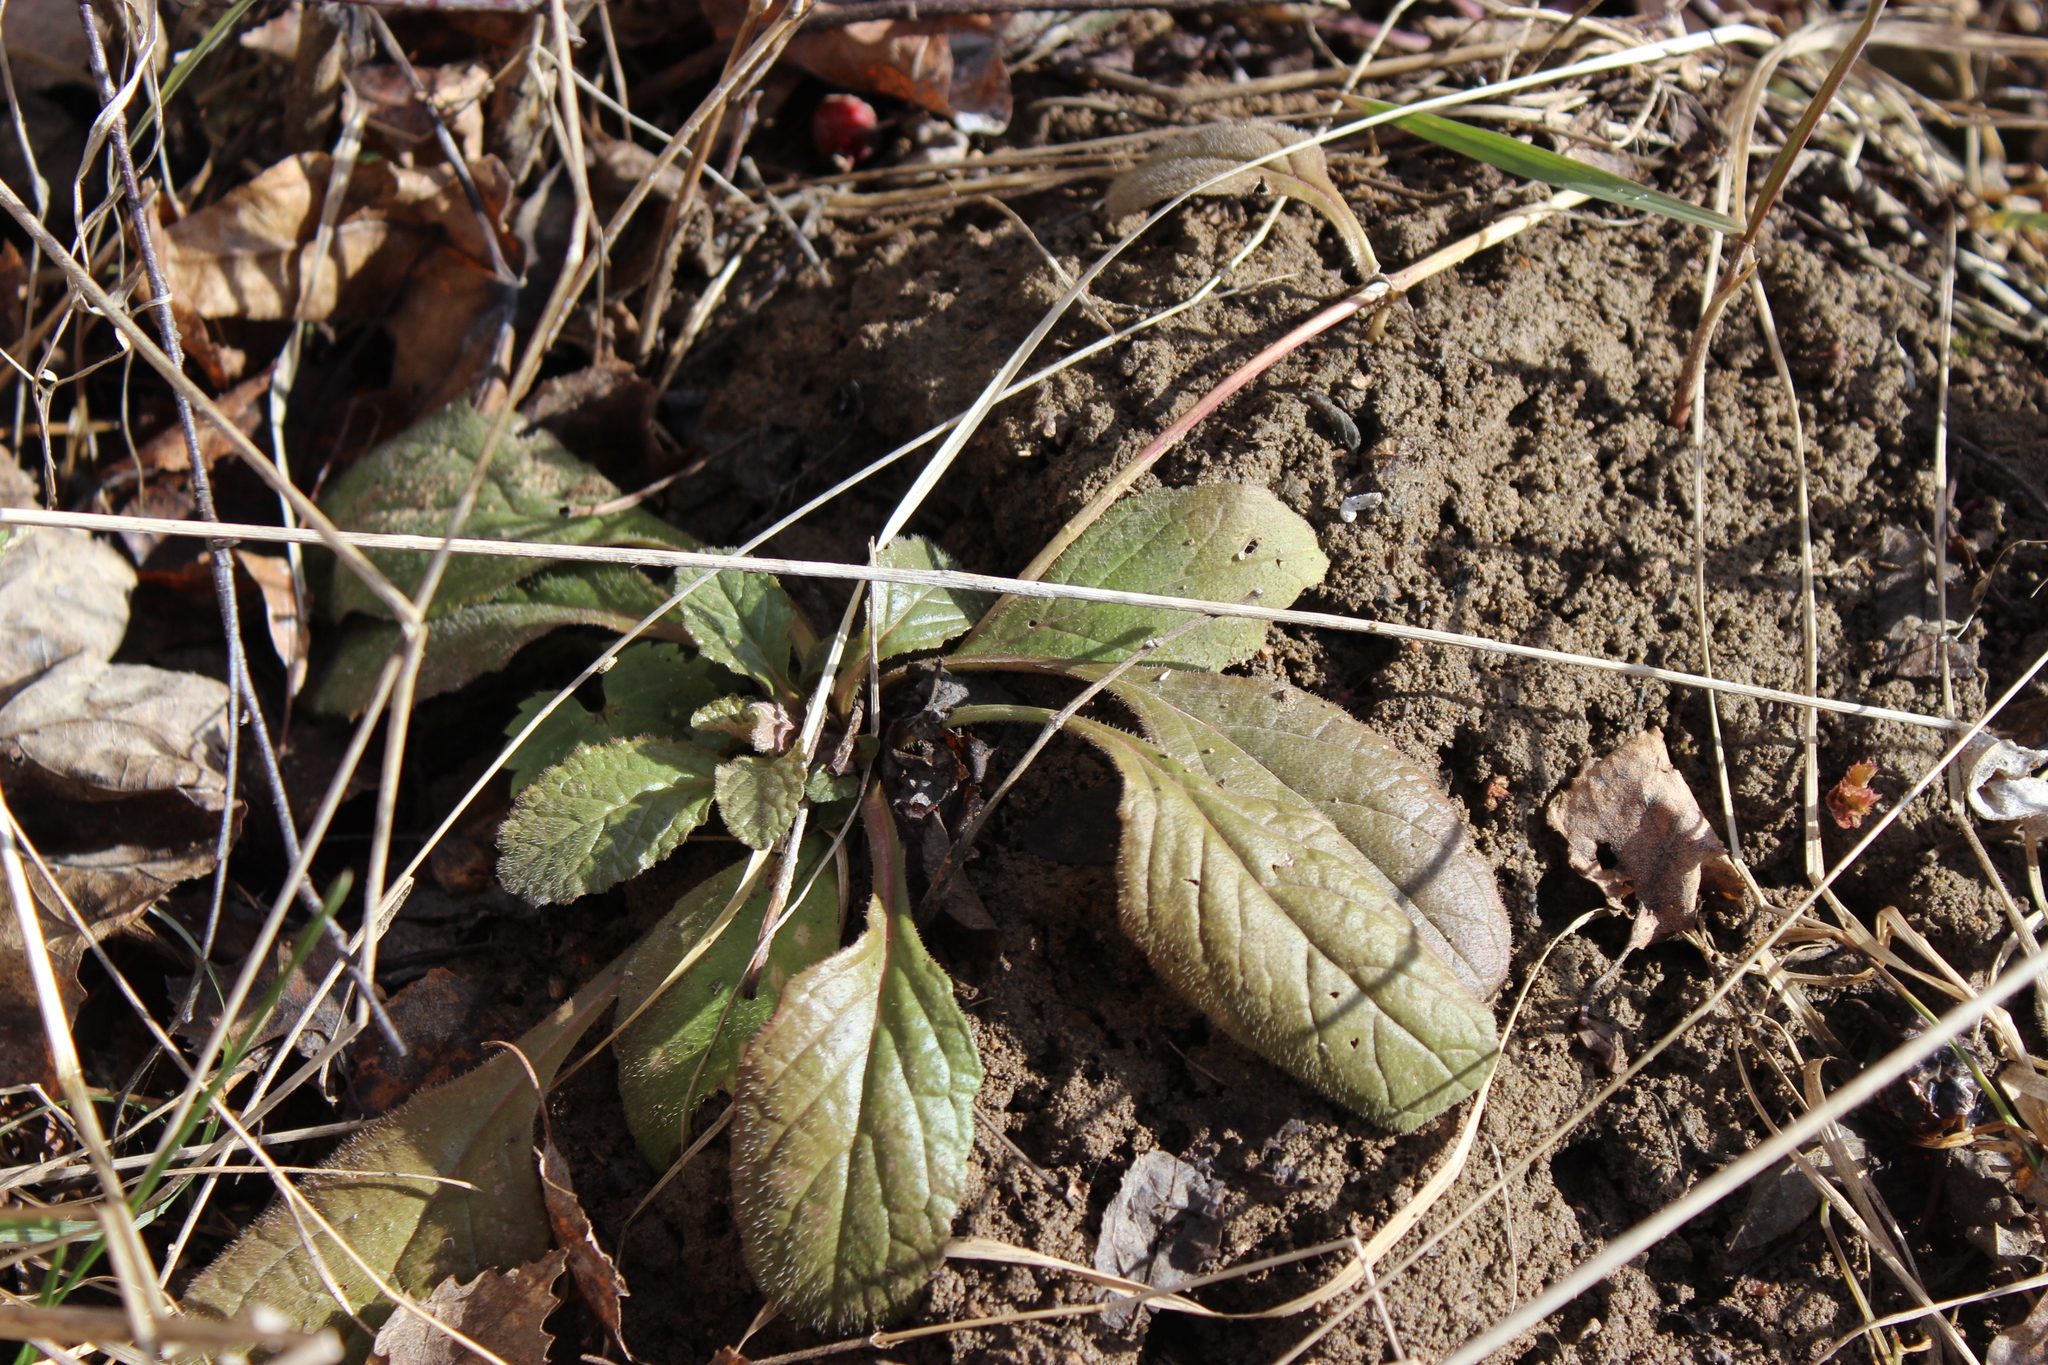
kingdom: Plantae
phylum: Tracheophyta
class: Magnoliopsida
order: Lamiales
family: Lamiaceae
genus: Ajuga
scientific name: Ajuga reptans
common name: Bugle
